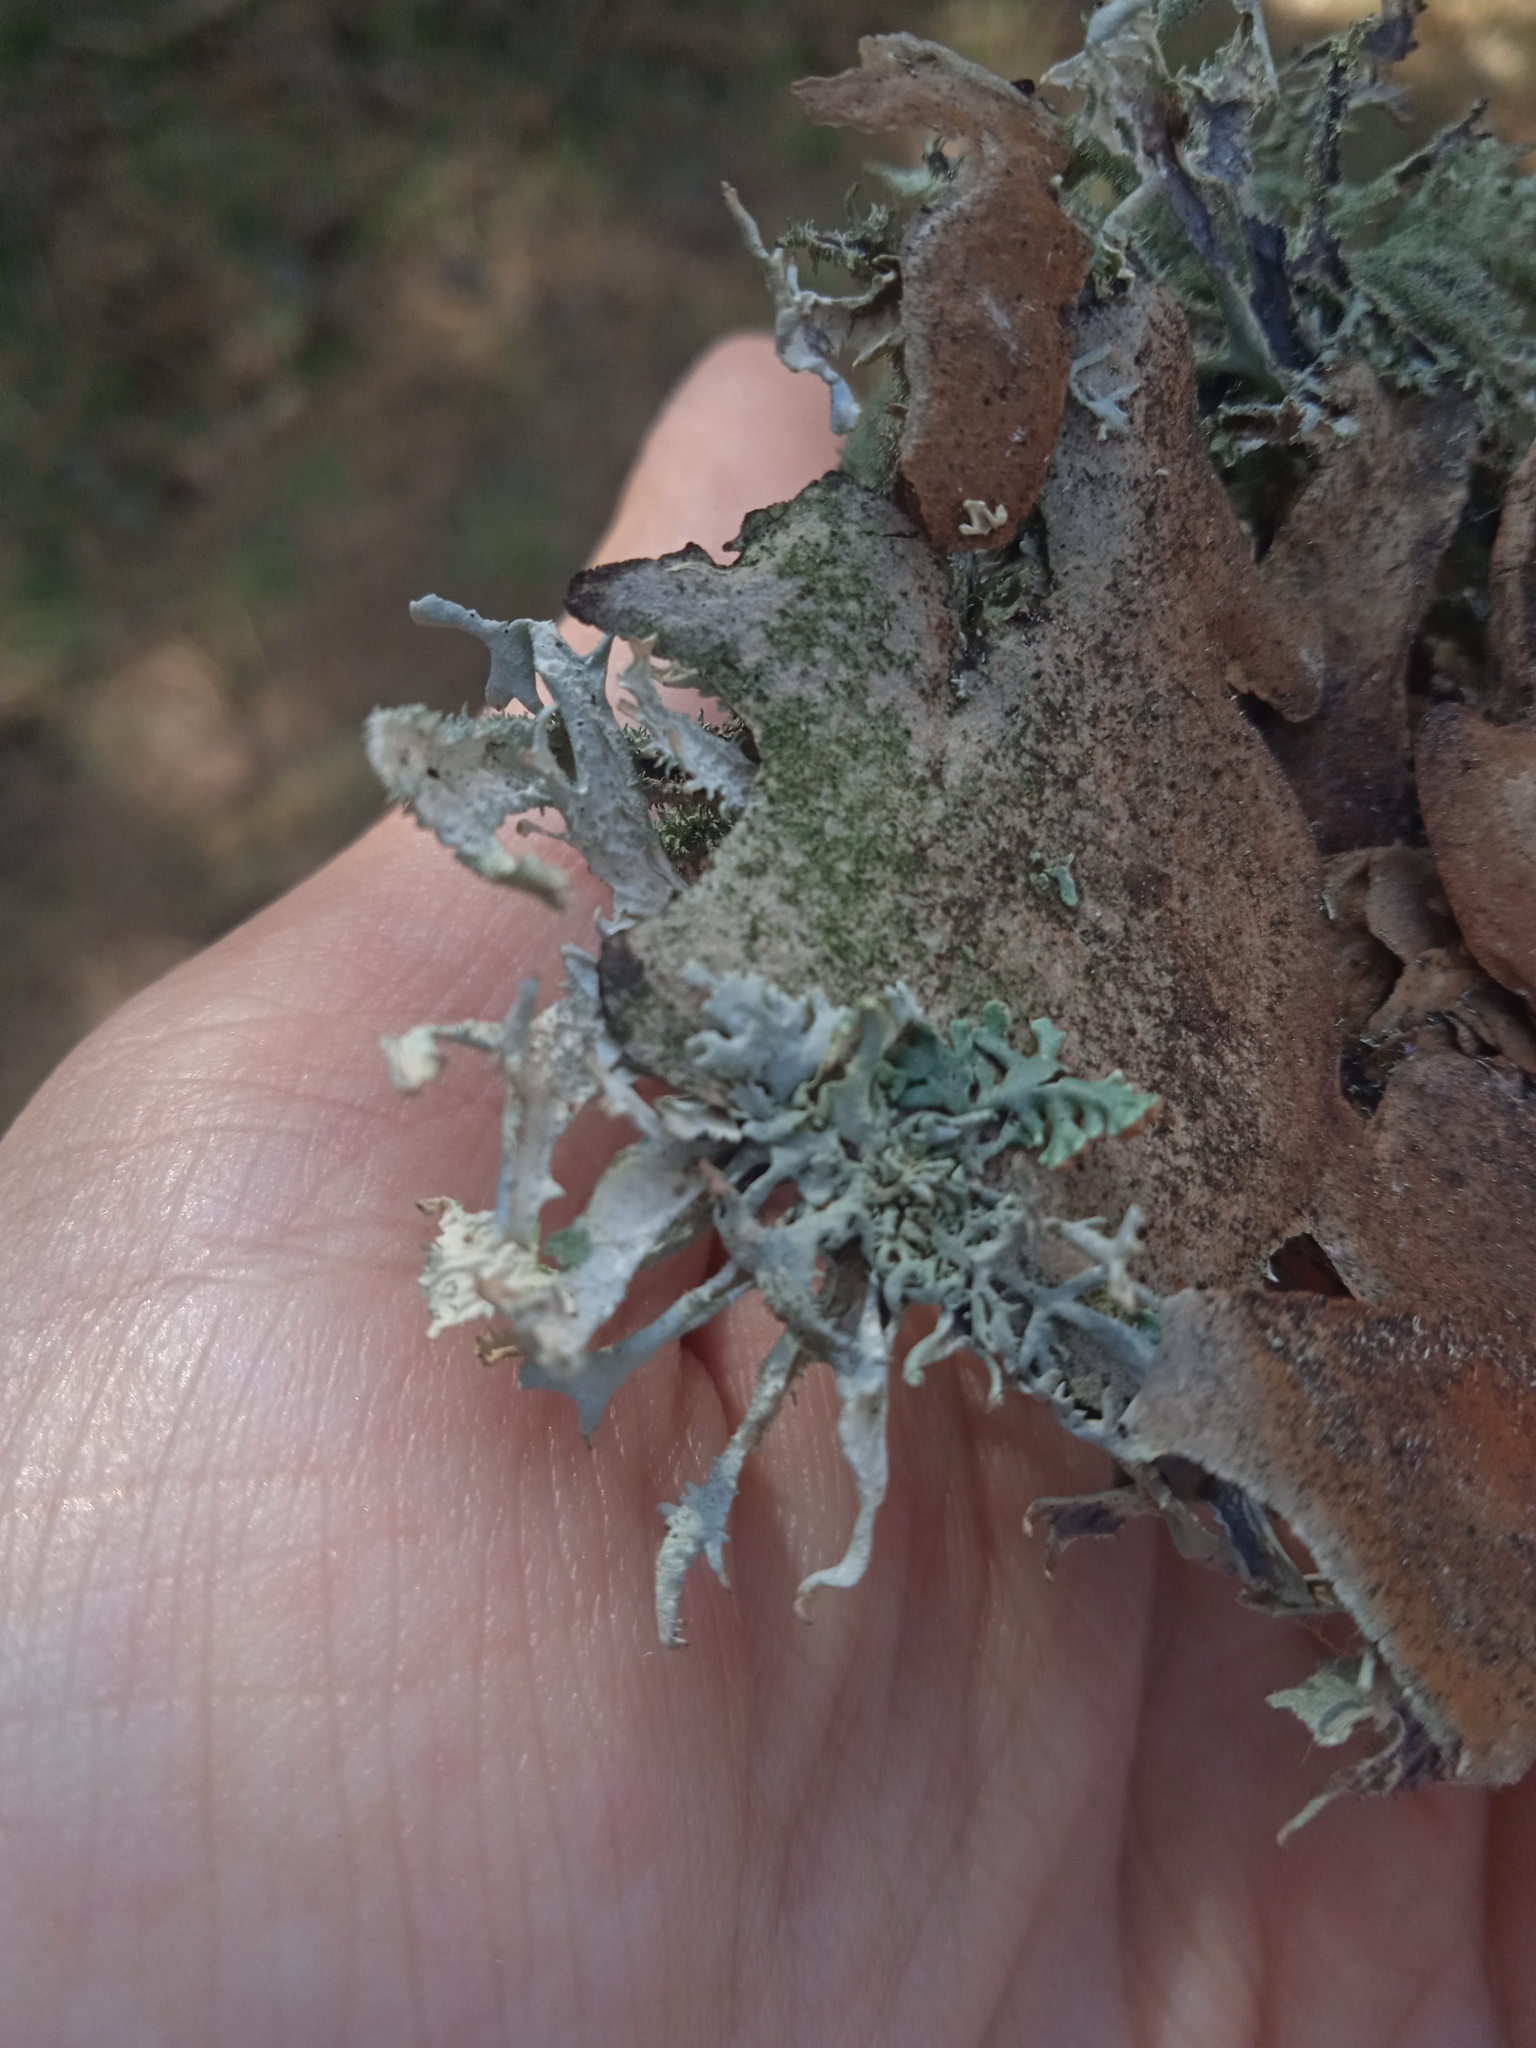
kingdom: Fungi
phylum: Ascomycota
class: Lecanoromycetes
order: Lecanorales
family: Parmeliaceae
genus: Pseudevernia
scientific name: Pseudevernia furfuracea
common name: Tree moss
